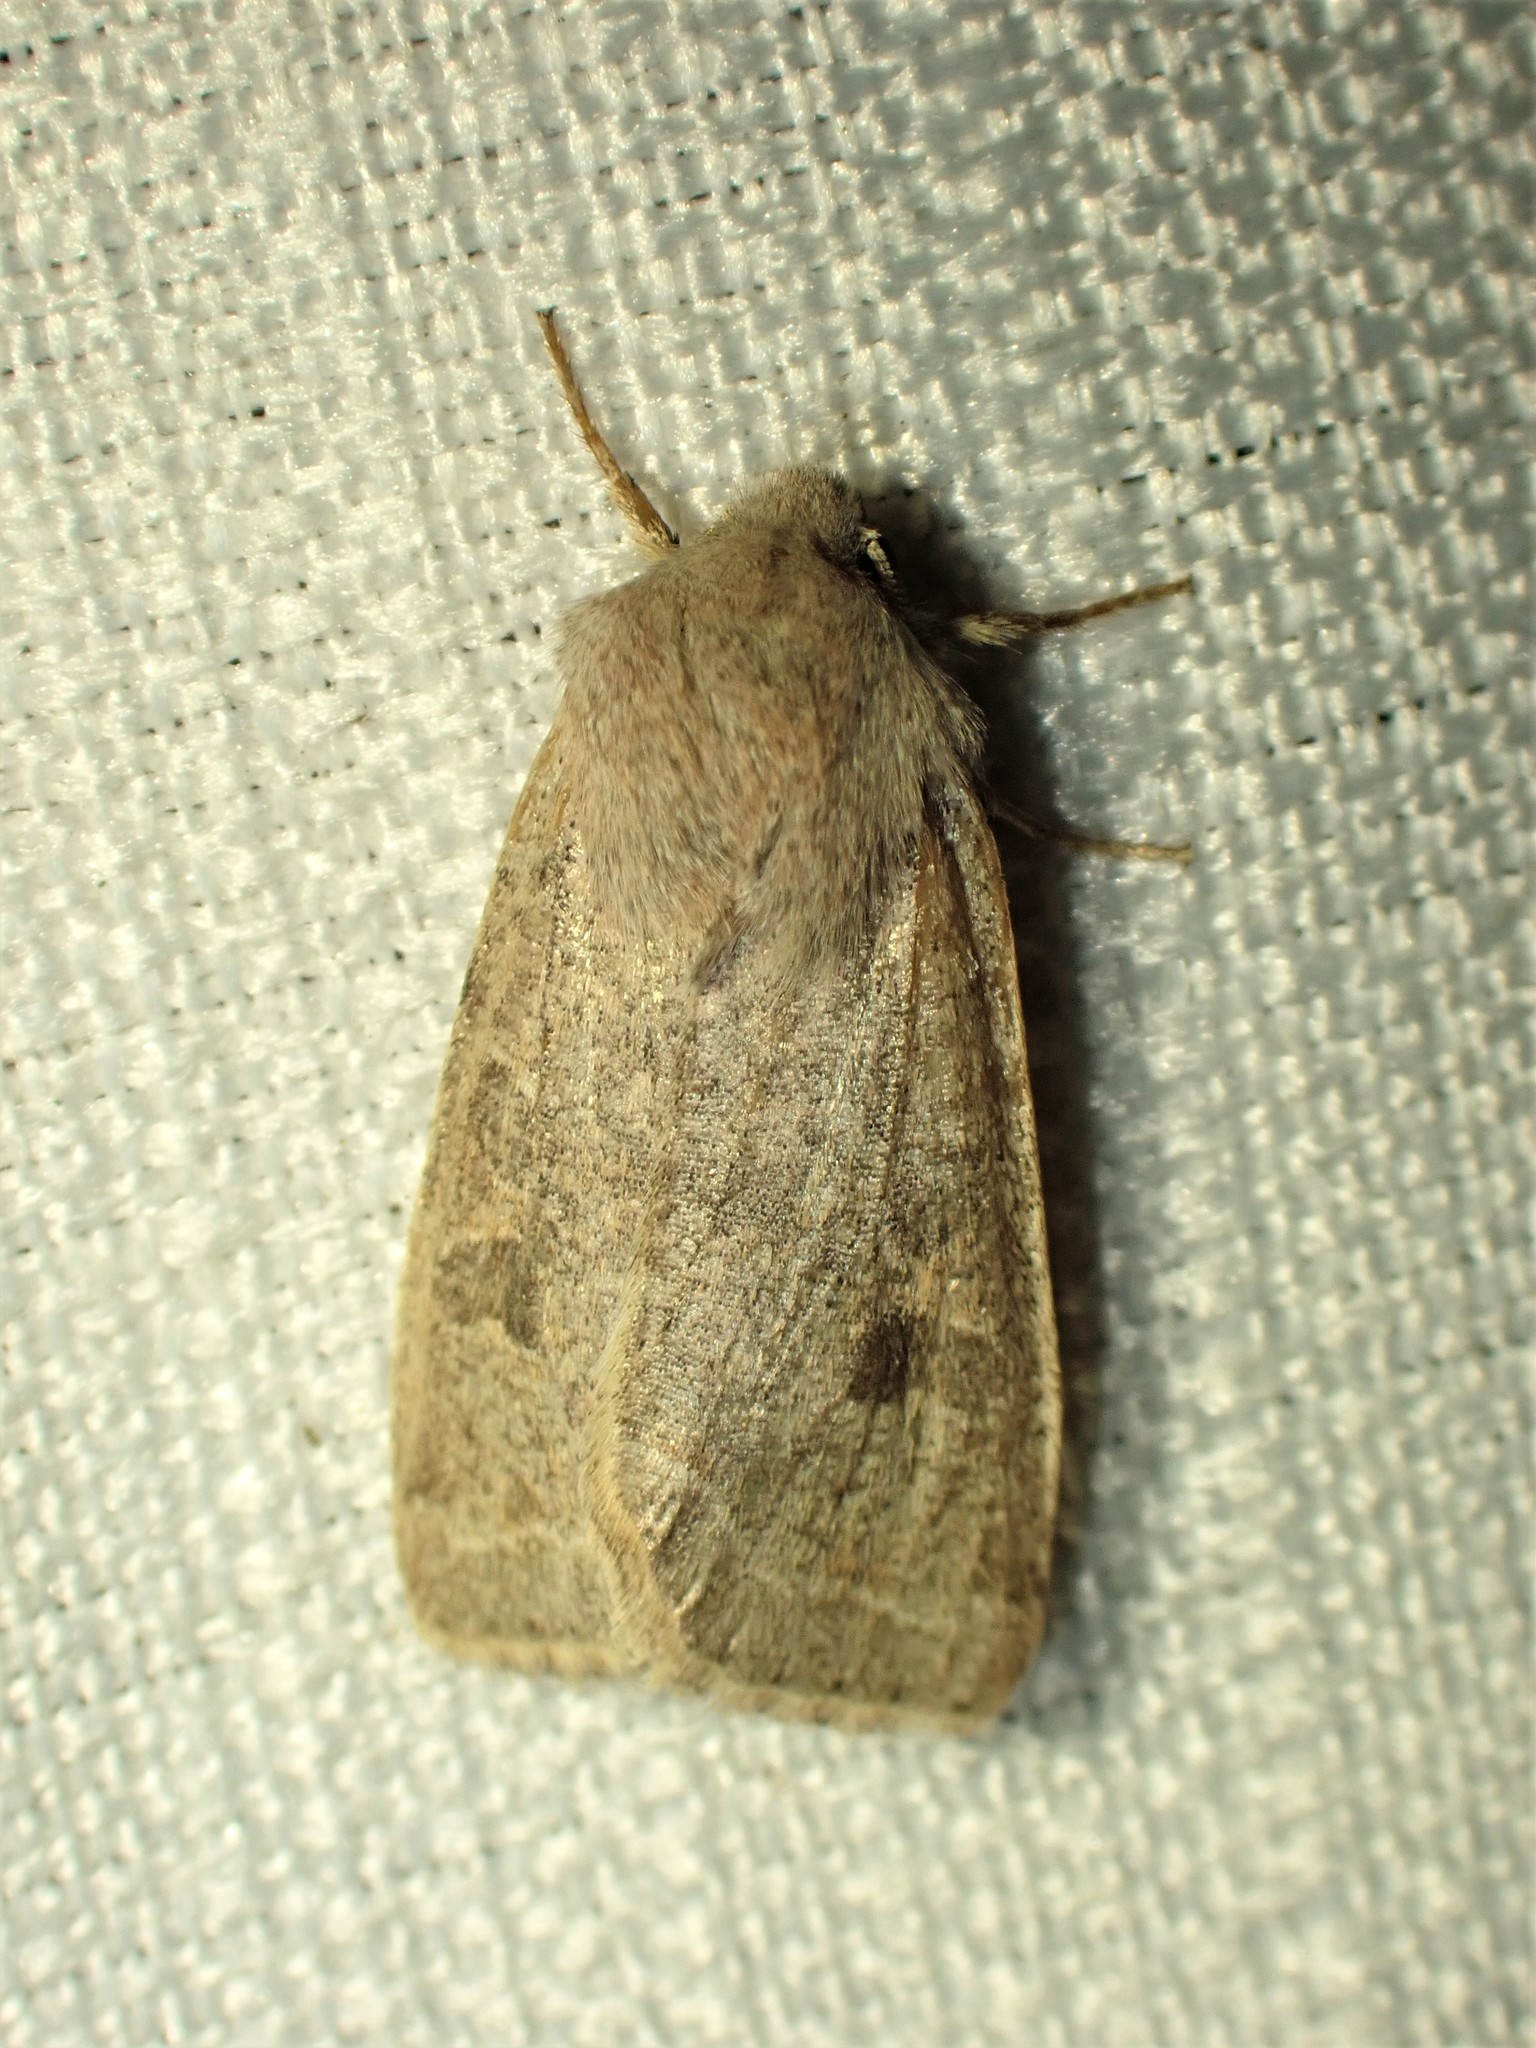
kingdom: Animalia
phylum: Arthropoda
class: Insecta
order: Lepidoptera
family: Noctuidae
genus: Orthosia
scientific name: Orthosia hibisci
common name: Green fruitworm
